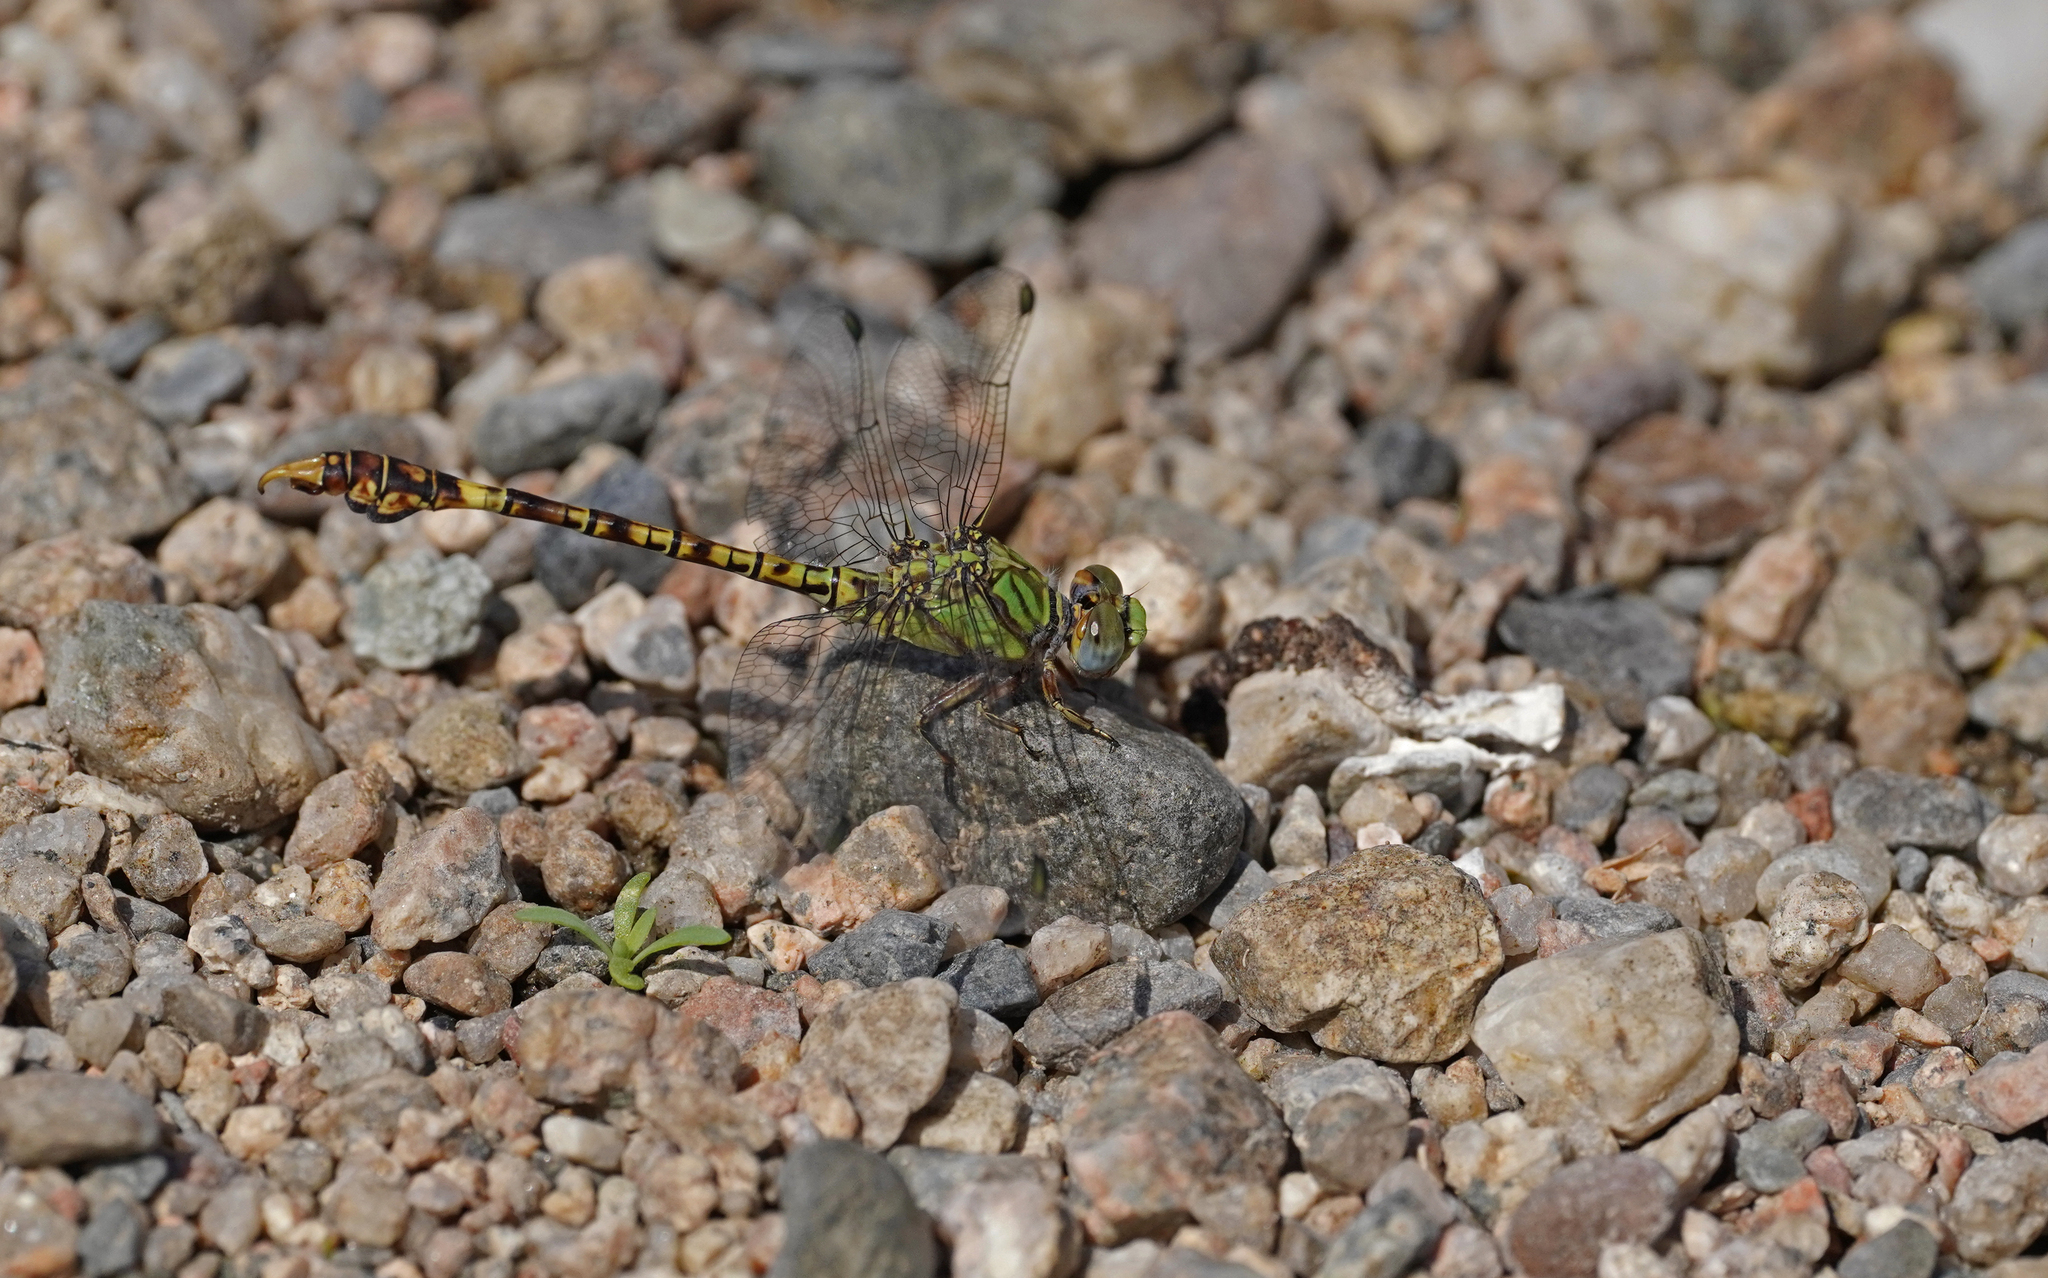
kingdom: Animalia
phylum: Arthropoda
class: Insecta
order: Odonata
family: Gomphidae
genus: Paragomphus
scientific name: Paragomphus genei
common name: Common hooktail
